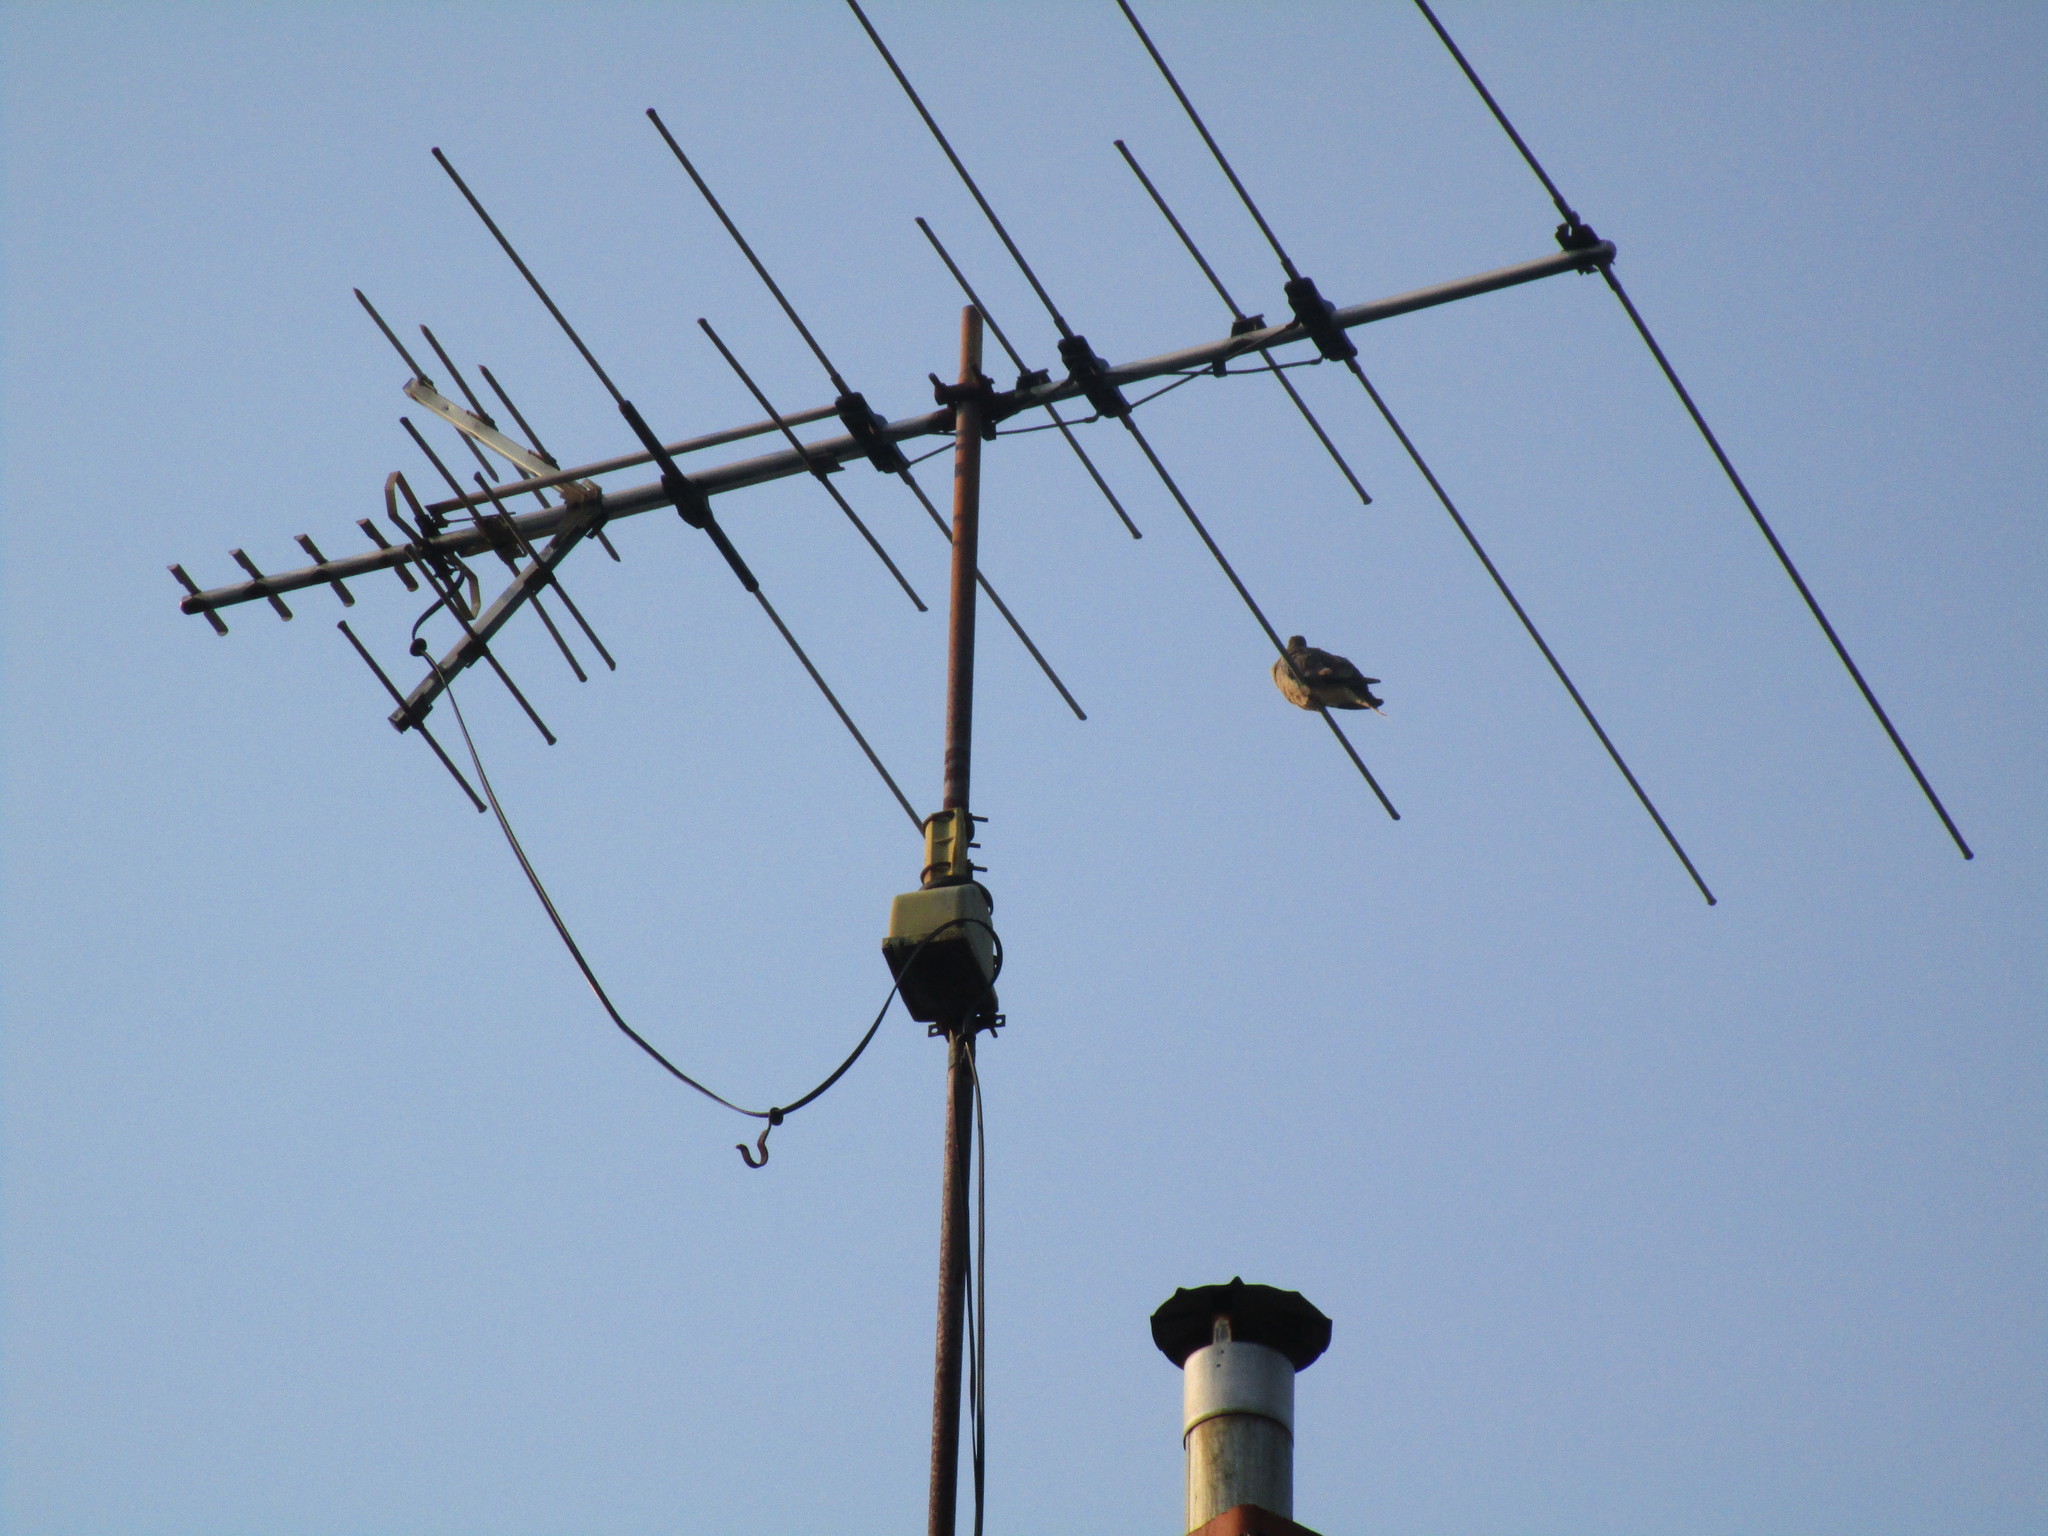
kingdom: Animalia
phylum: Chordata
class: Aves
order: Columbiformes
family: Columbidae
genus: Zenaida
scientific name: Zenaida macroura
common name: Mourning dove
